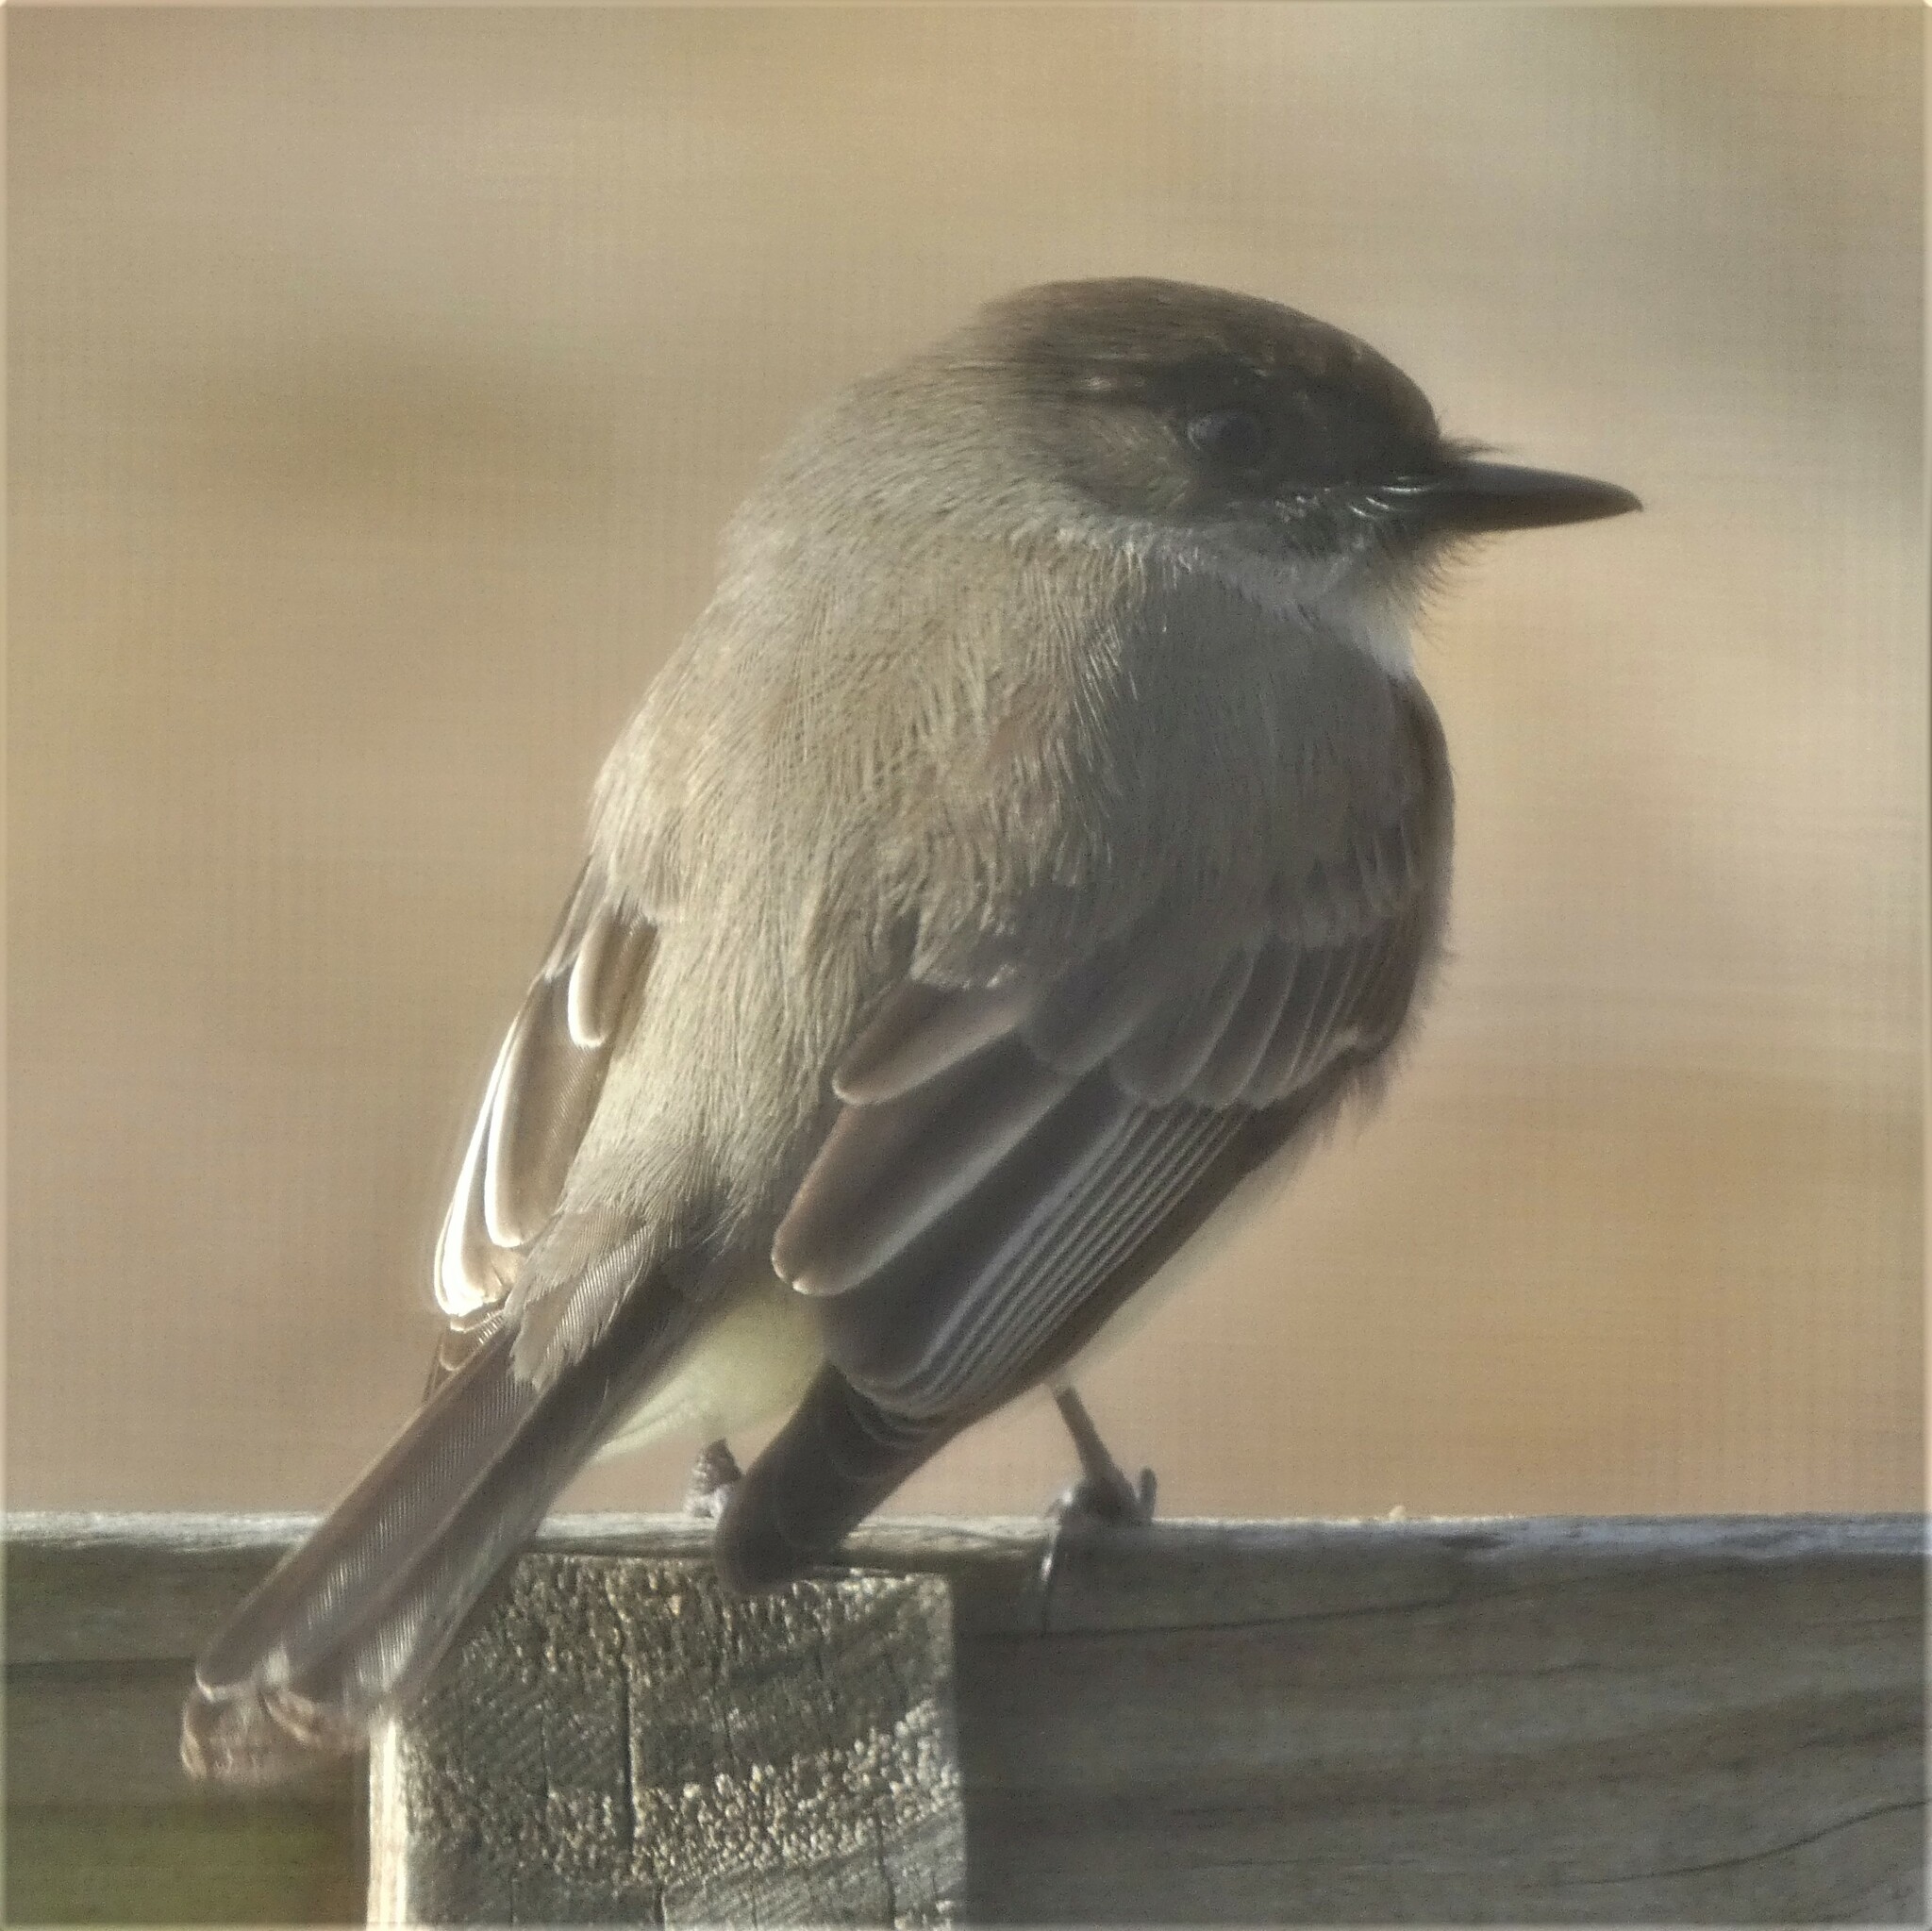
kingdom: Animalia
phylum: Chordata
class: Aves
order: Passeriformes
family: Tyrannidae
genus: Sayornis
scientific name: Sayornis phoebe
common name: Eastern phoebe
